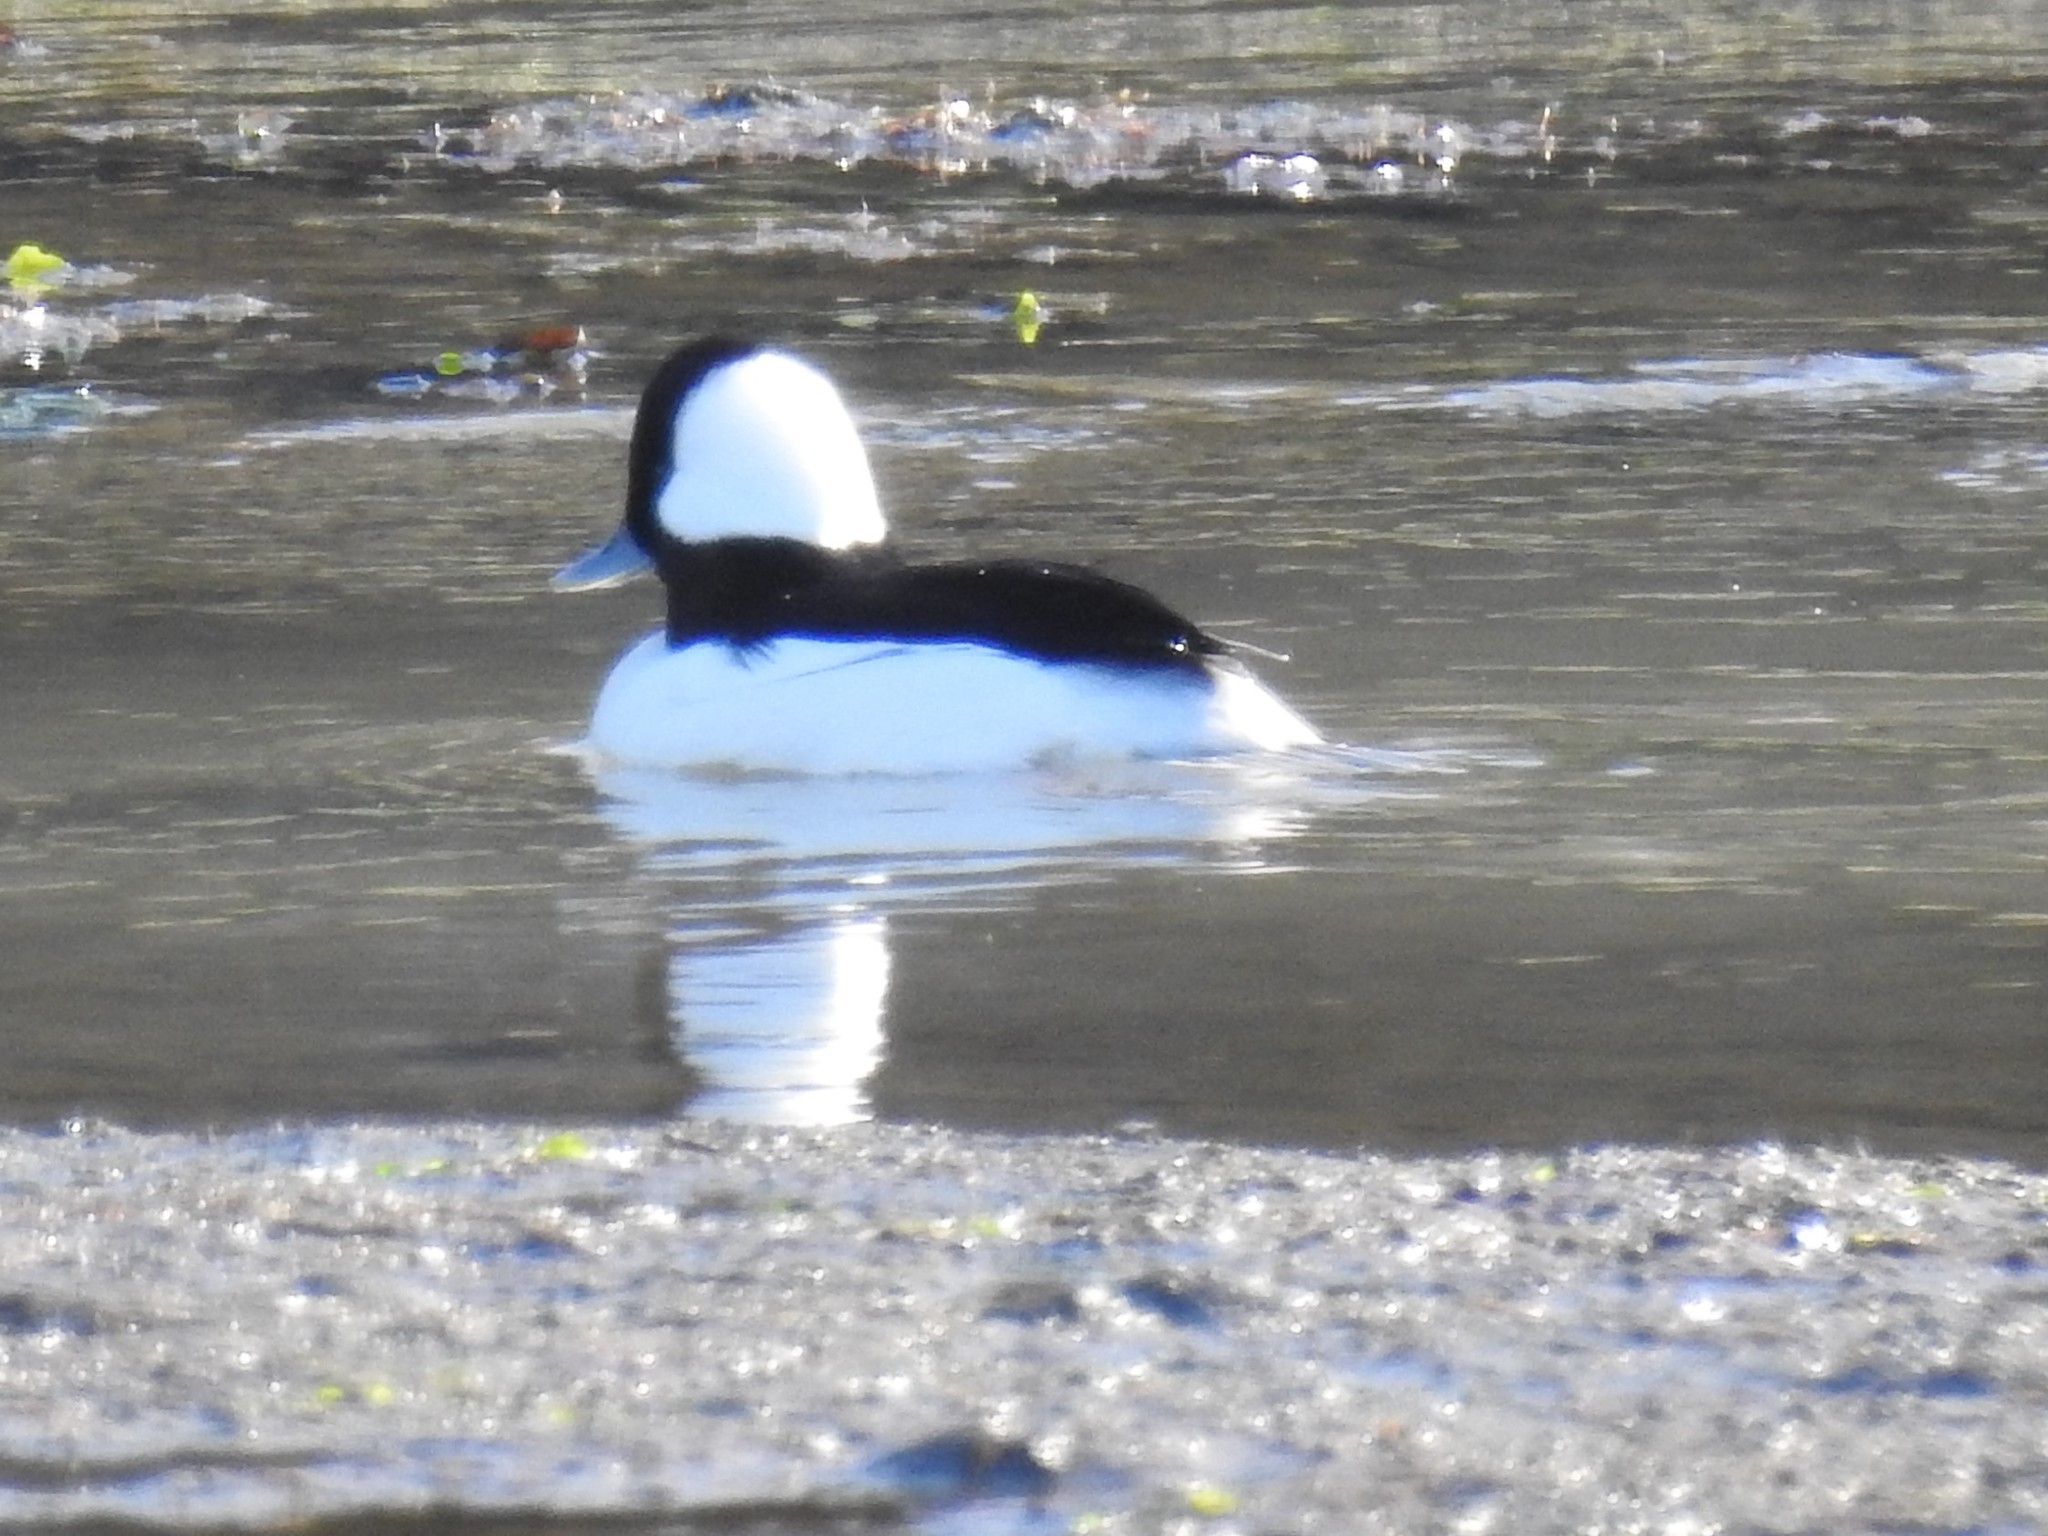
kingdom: Animalia
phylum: Chordata
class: Aves
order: Anseriformes
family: Anatidae
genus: Bucephala
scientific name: Bucephala albeola
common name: Bufflehead
